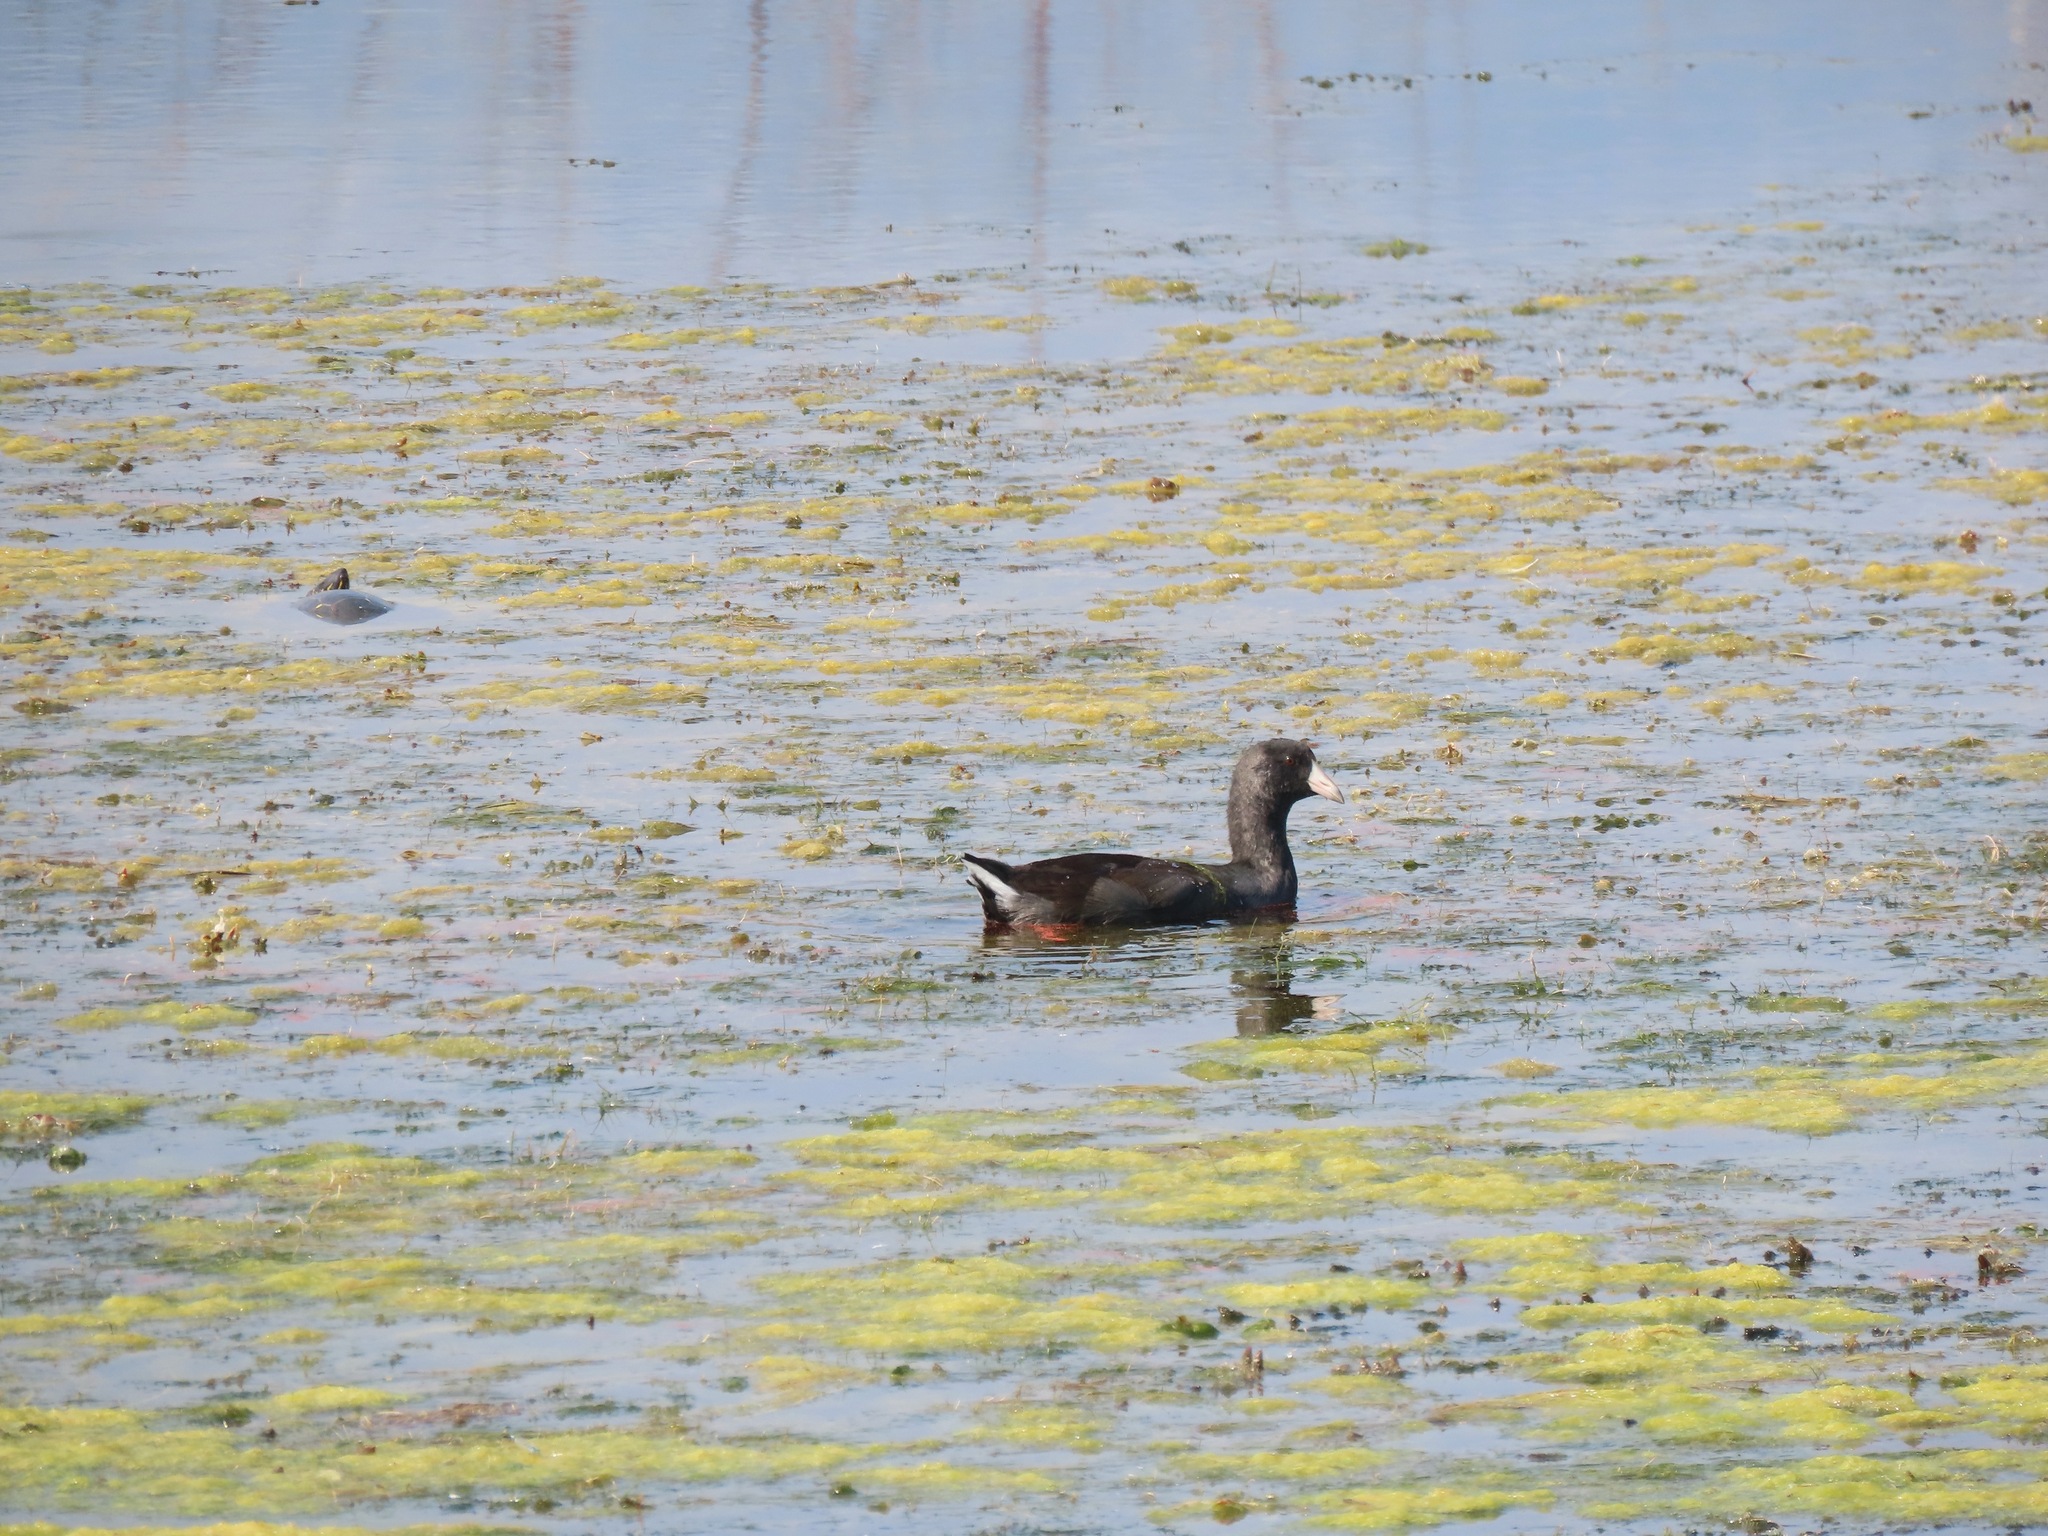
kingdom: Animalia
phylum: Chordata
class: Aves
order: Gruiformes
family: Rallidae
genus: Fulica
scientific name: Fulica americana
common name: American coot
